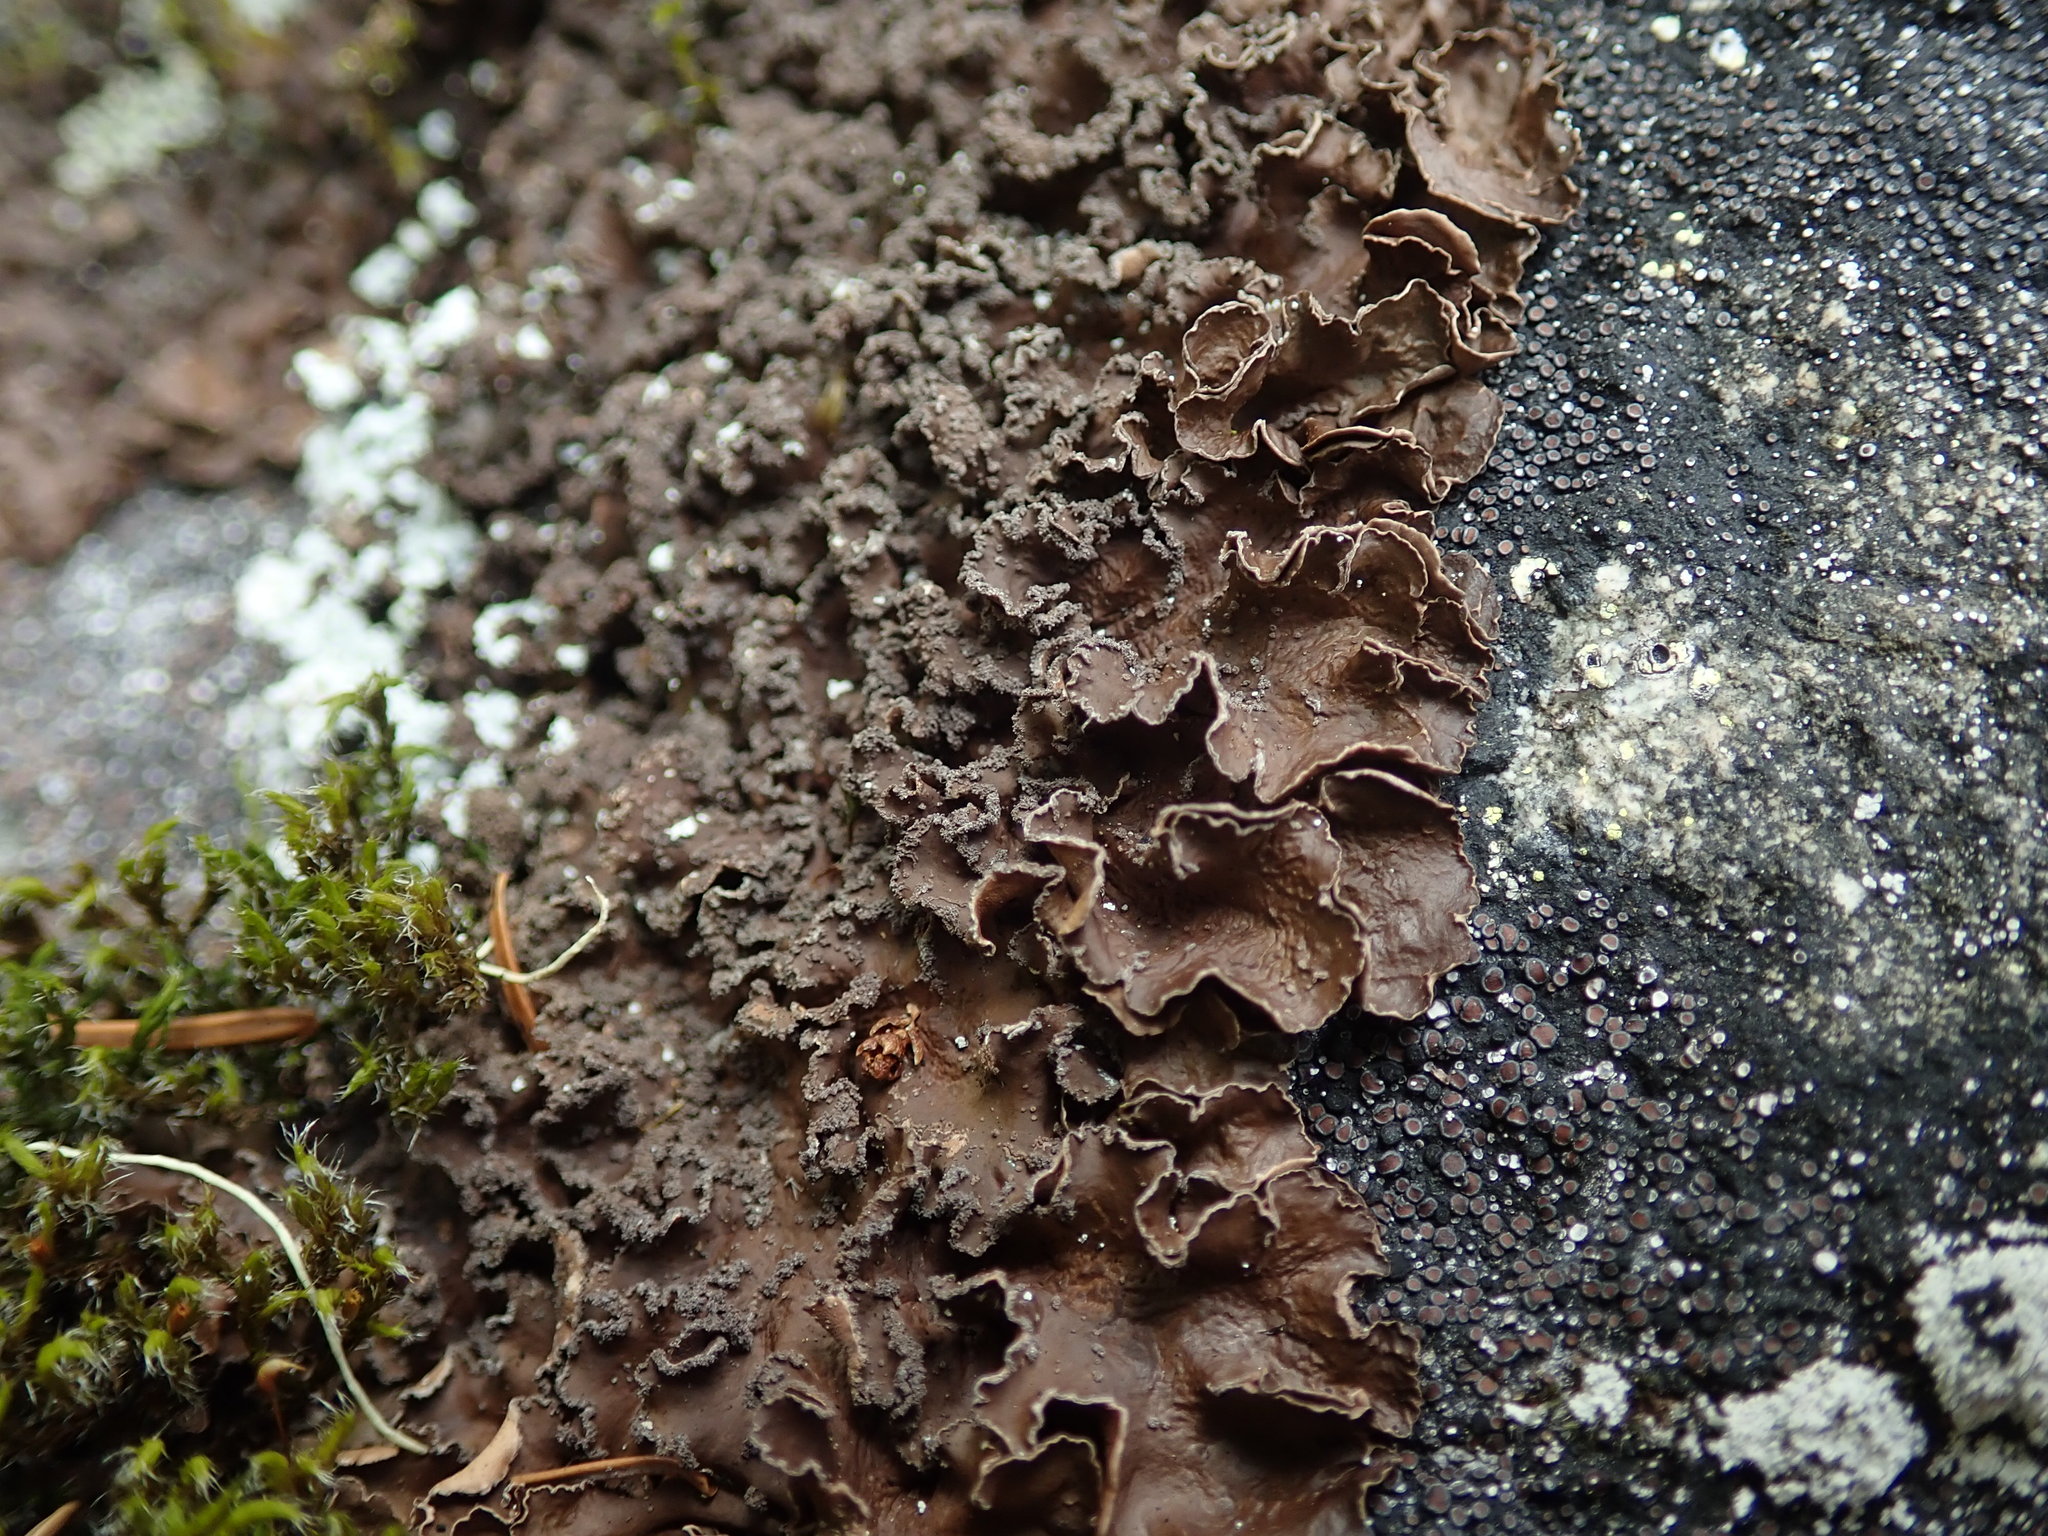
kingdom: Fungi
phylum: Ascomycota
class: Lecanoromycetes
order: Peltigerales
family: Nephromataceae
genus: Nephroma
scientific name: Nephroma parile
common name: Powdery kidney lichen
